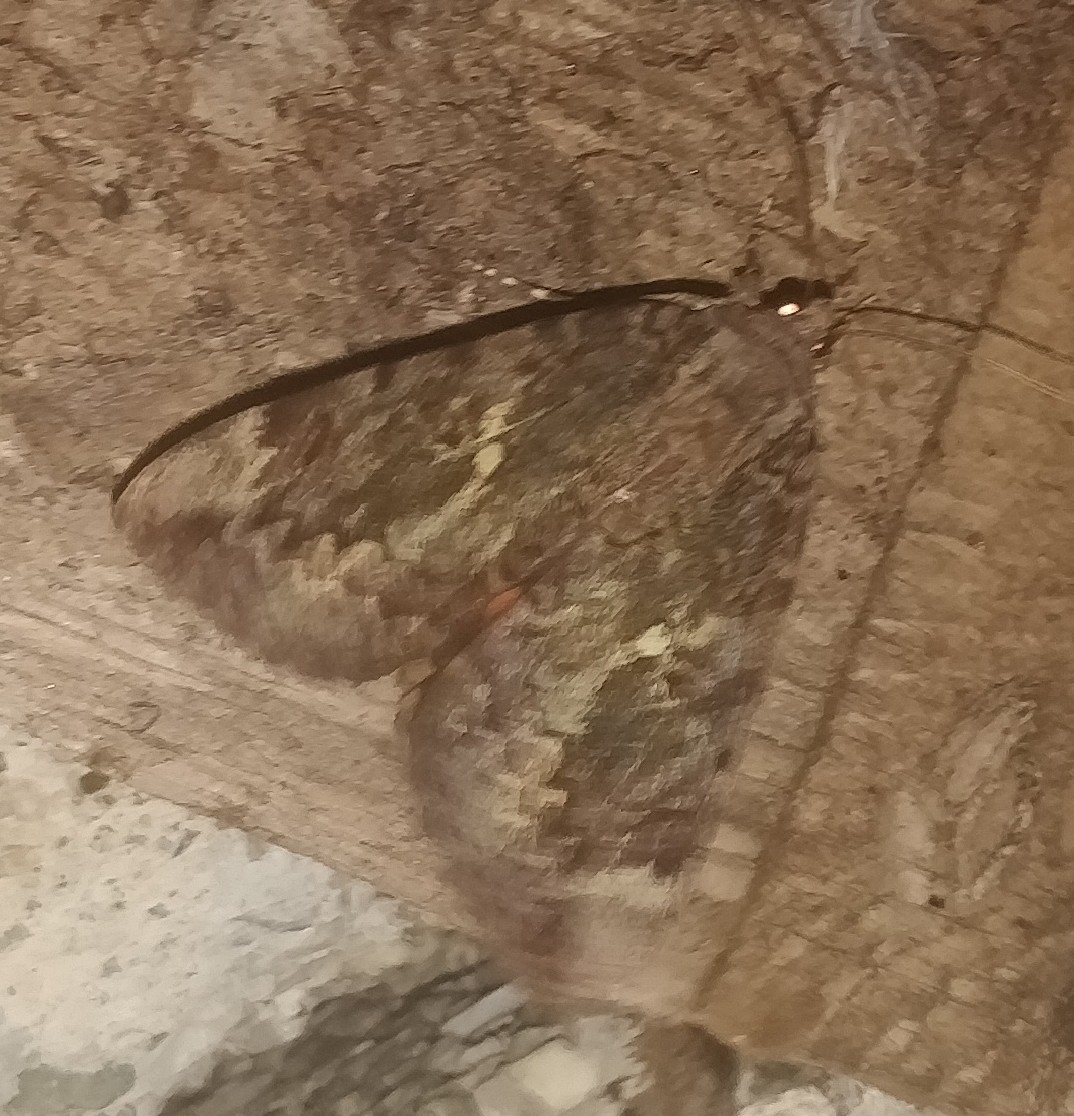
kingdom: Animalia
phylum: Arthropoda
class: Insecta
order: Lepidoptera
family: Erebidae
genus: Catocala
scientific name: Catocala innubens
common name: Betrothed underwing
